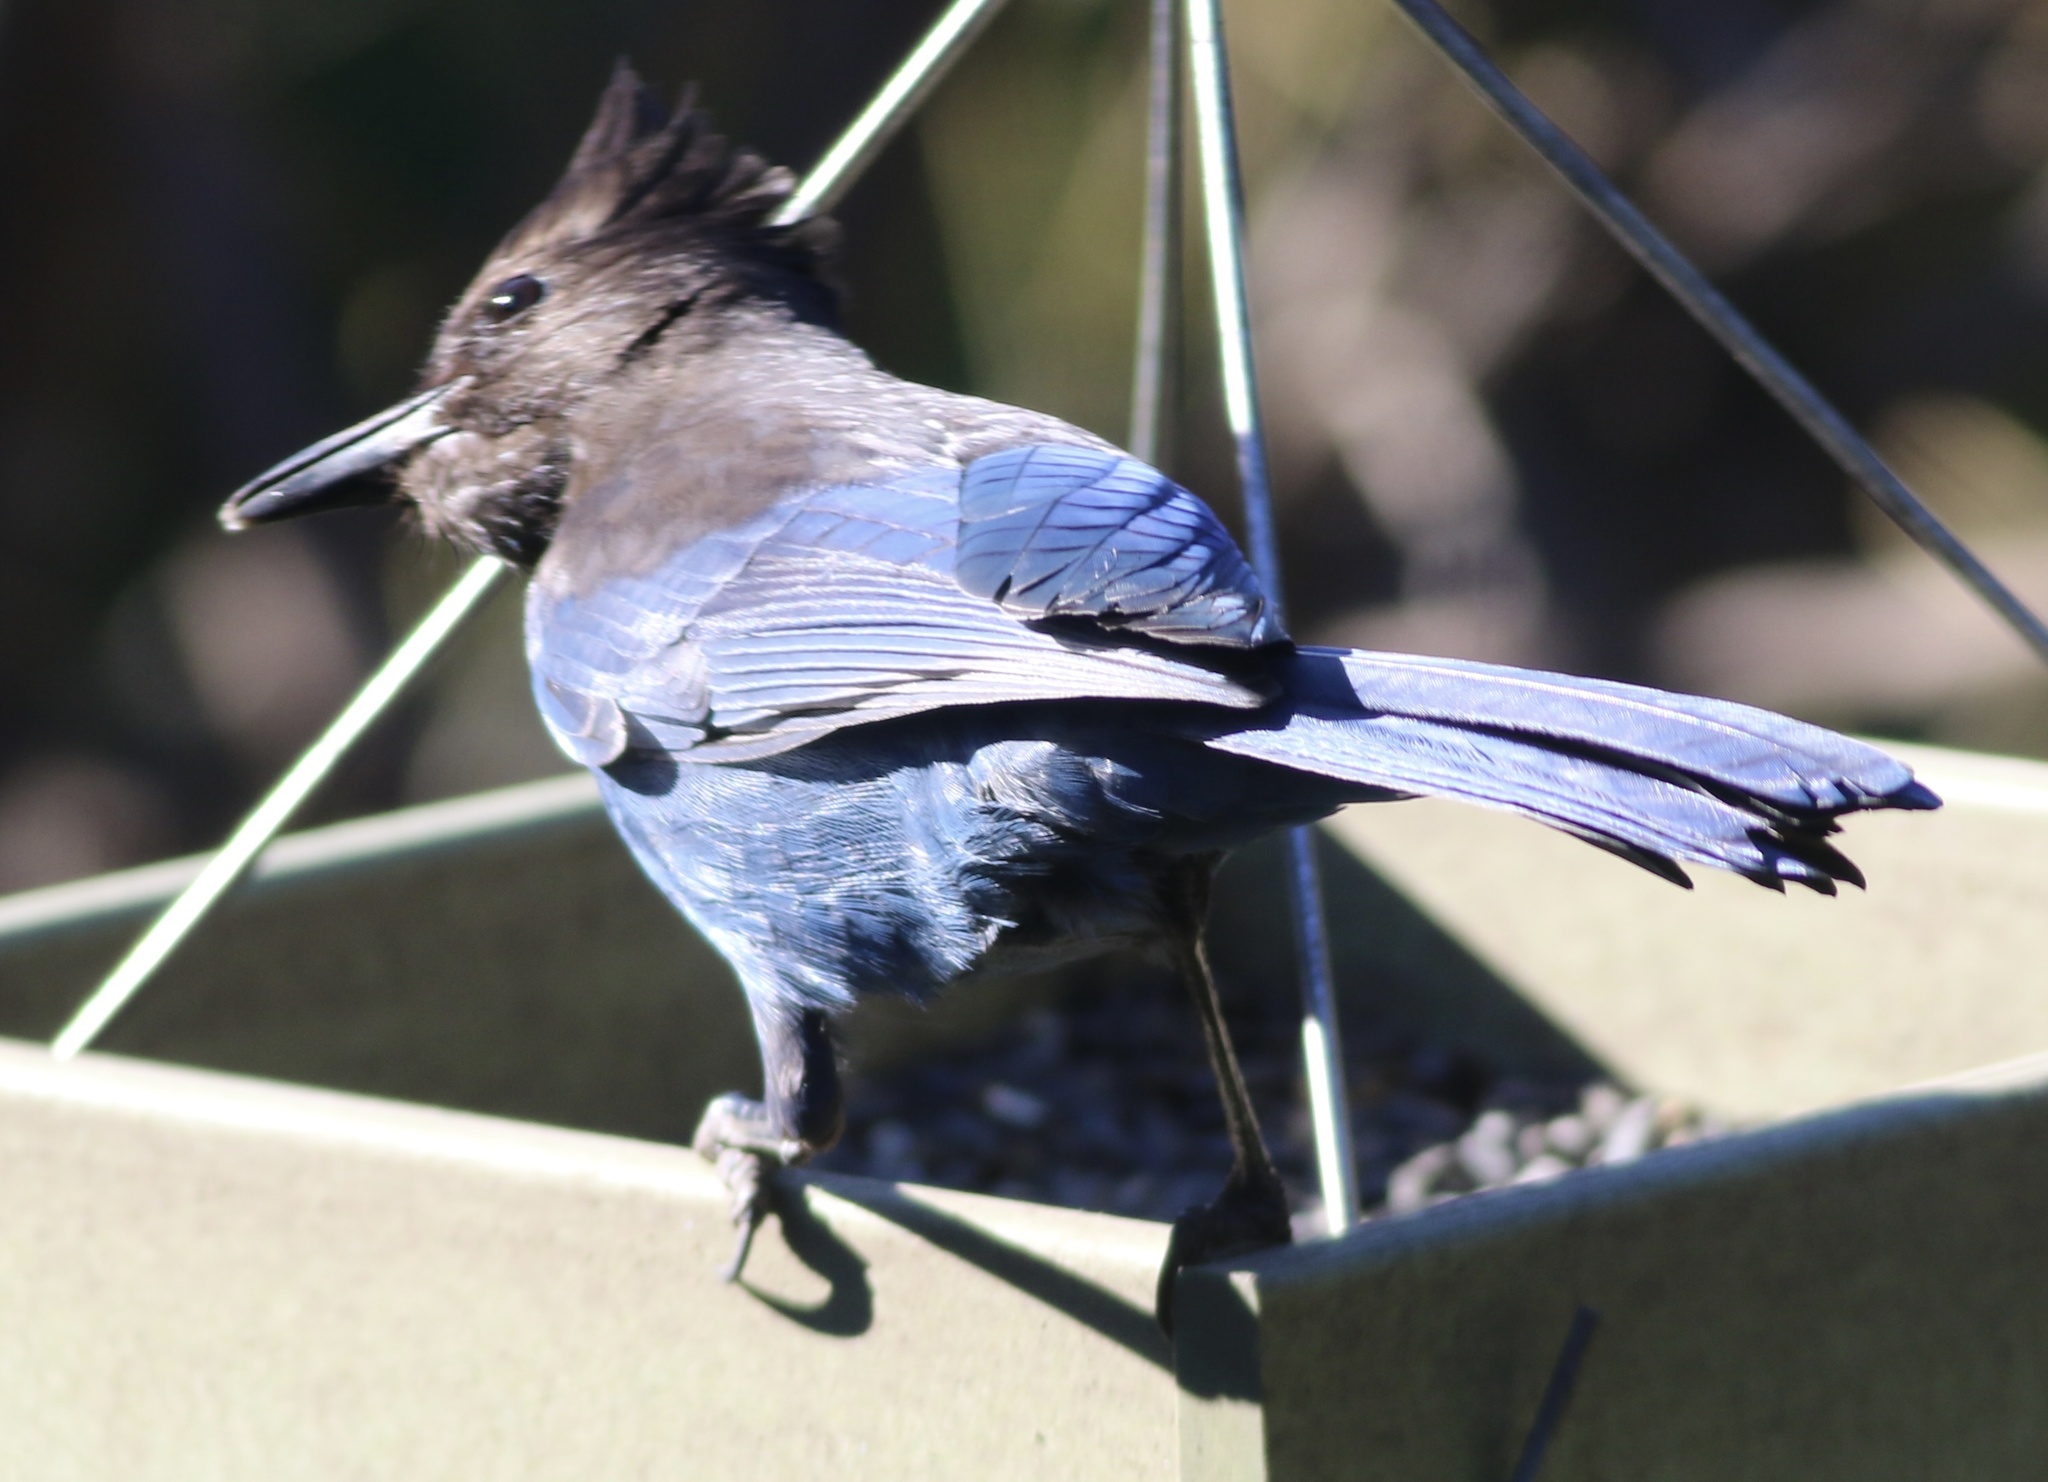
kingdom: Animalia
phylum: Chordata
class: Aves
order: Passeriformes
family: Corvidae
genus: Cyanocitta
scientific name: Cyanocitta stelleri
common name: Steller's jay
